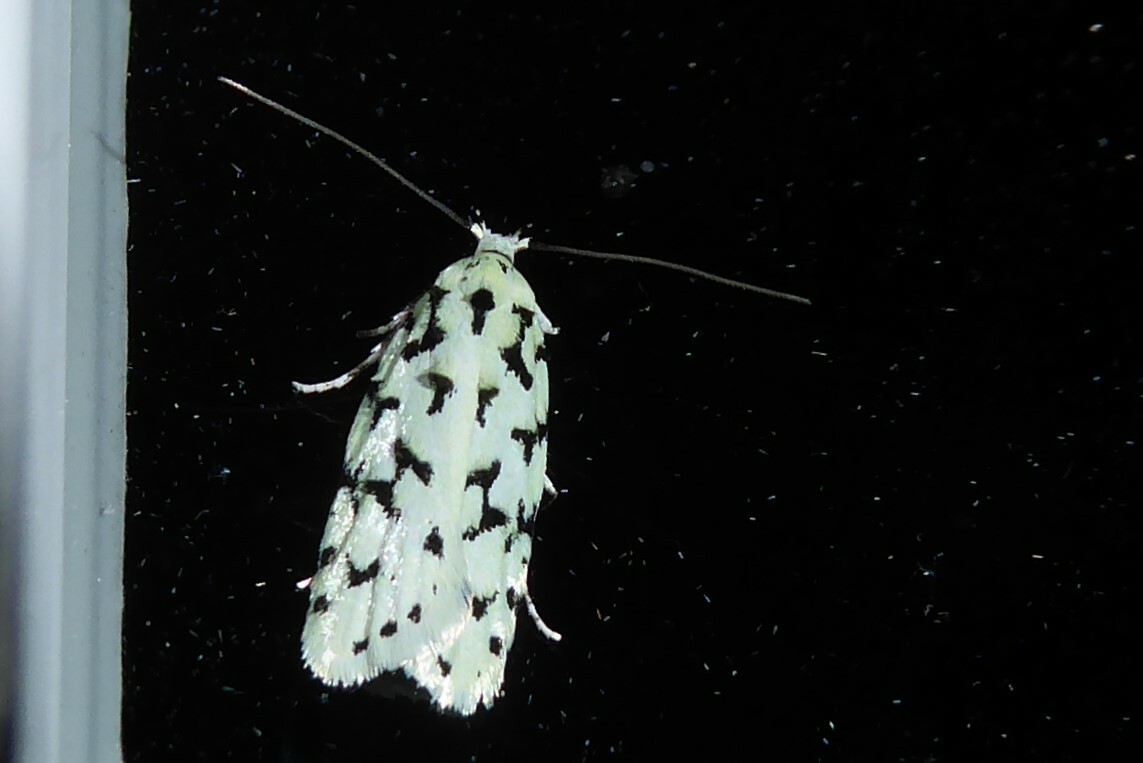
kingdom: Animalia
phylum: Arthropoda
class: Insecta
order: Lepidoptera
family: Oecophoridae
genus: Izatha
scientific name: Izatha huttoni
